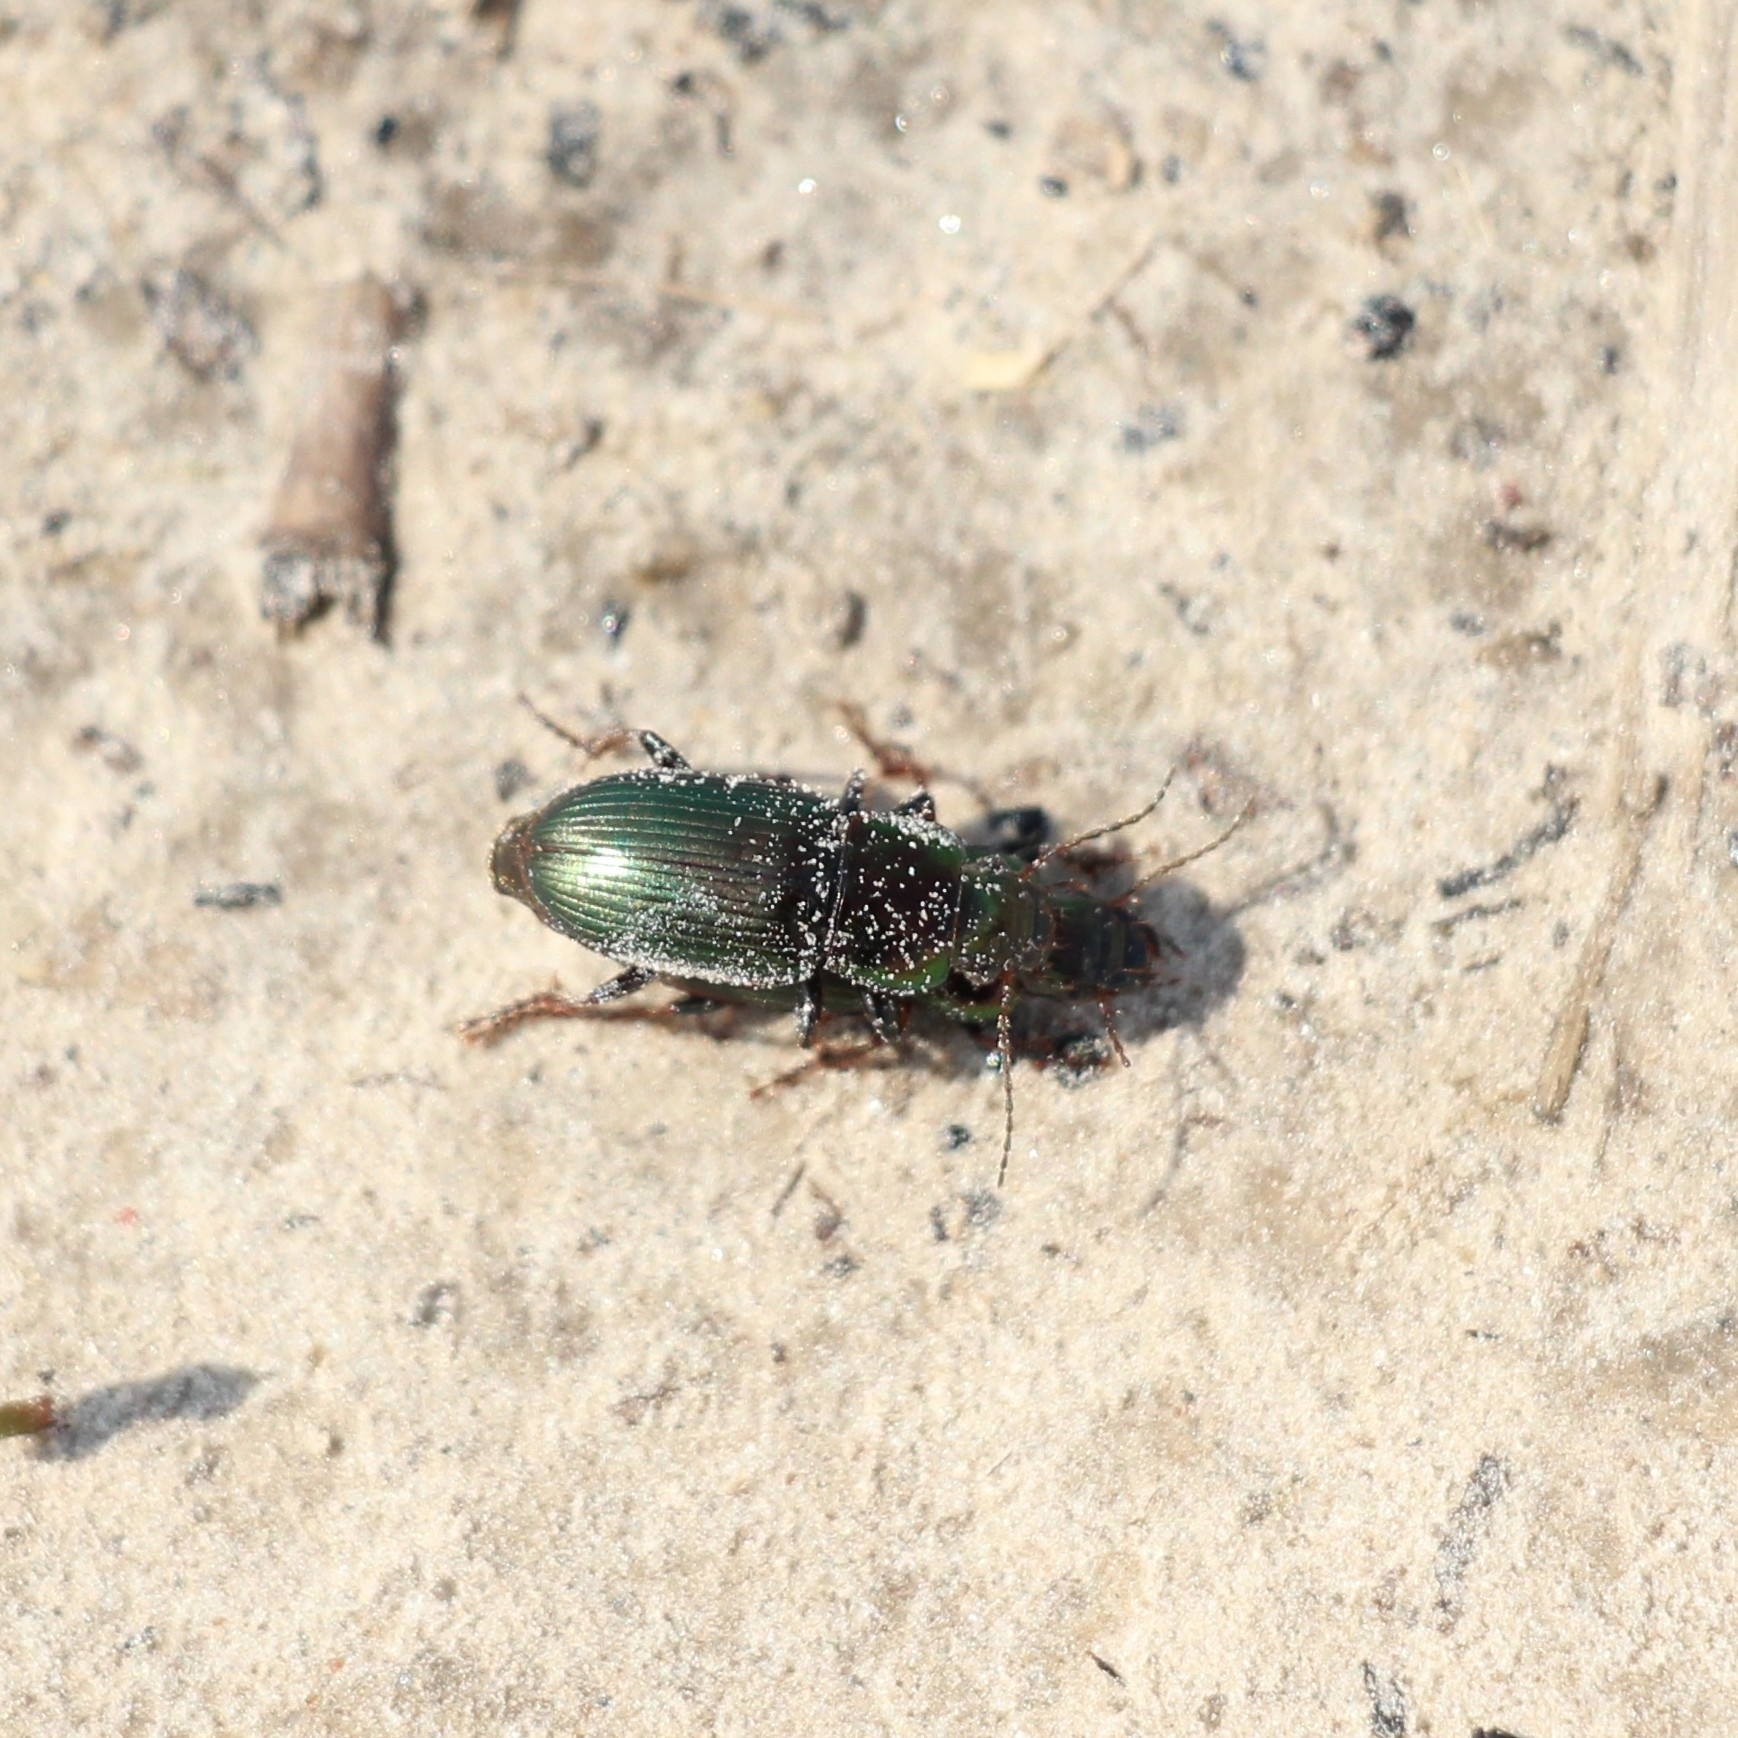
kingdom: Animalia
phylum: Arthropoda
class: Insecta
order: Coleoptera
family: Carabidae
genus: Harpalus
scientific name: Harpalus distinguendus
